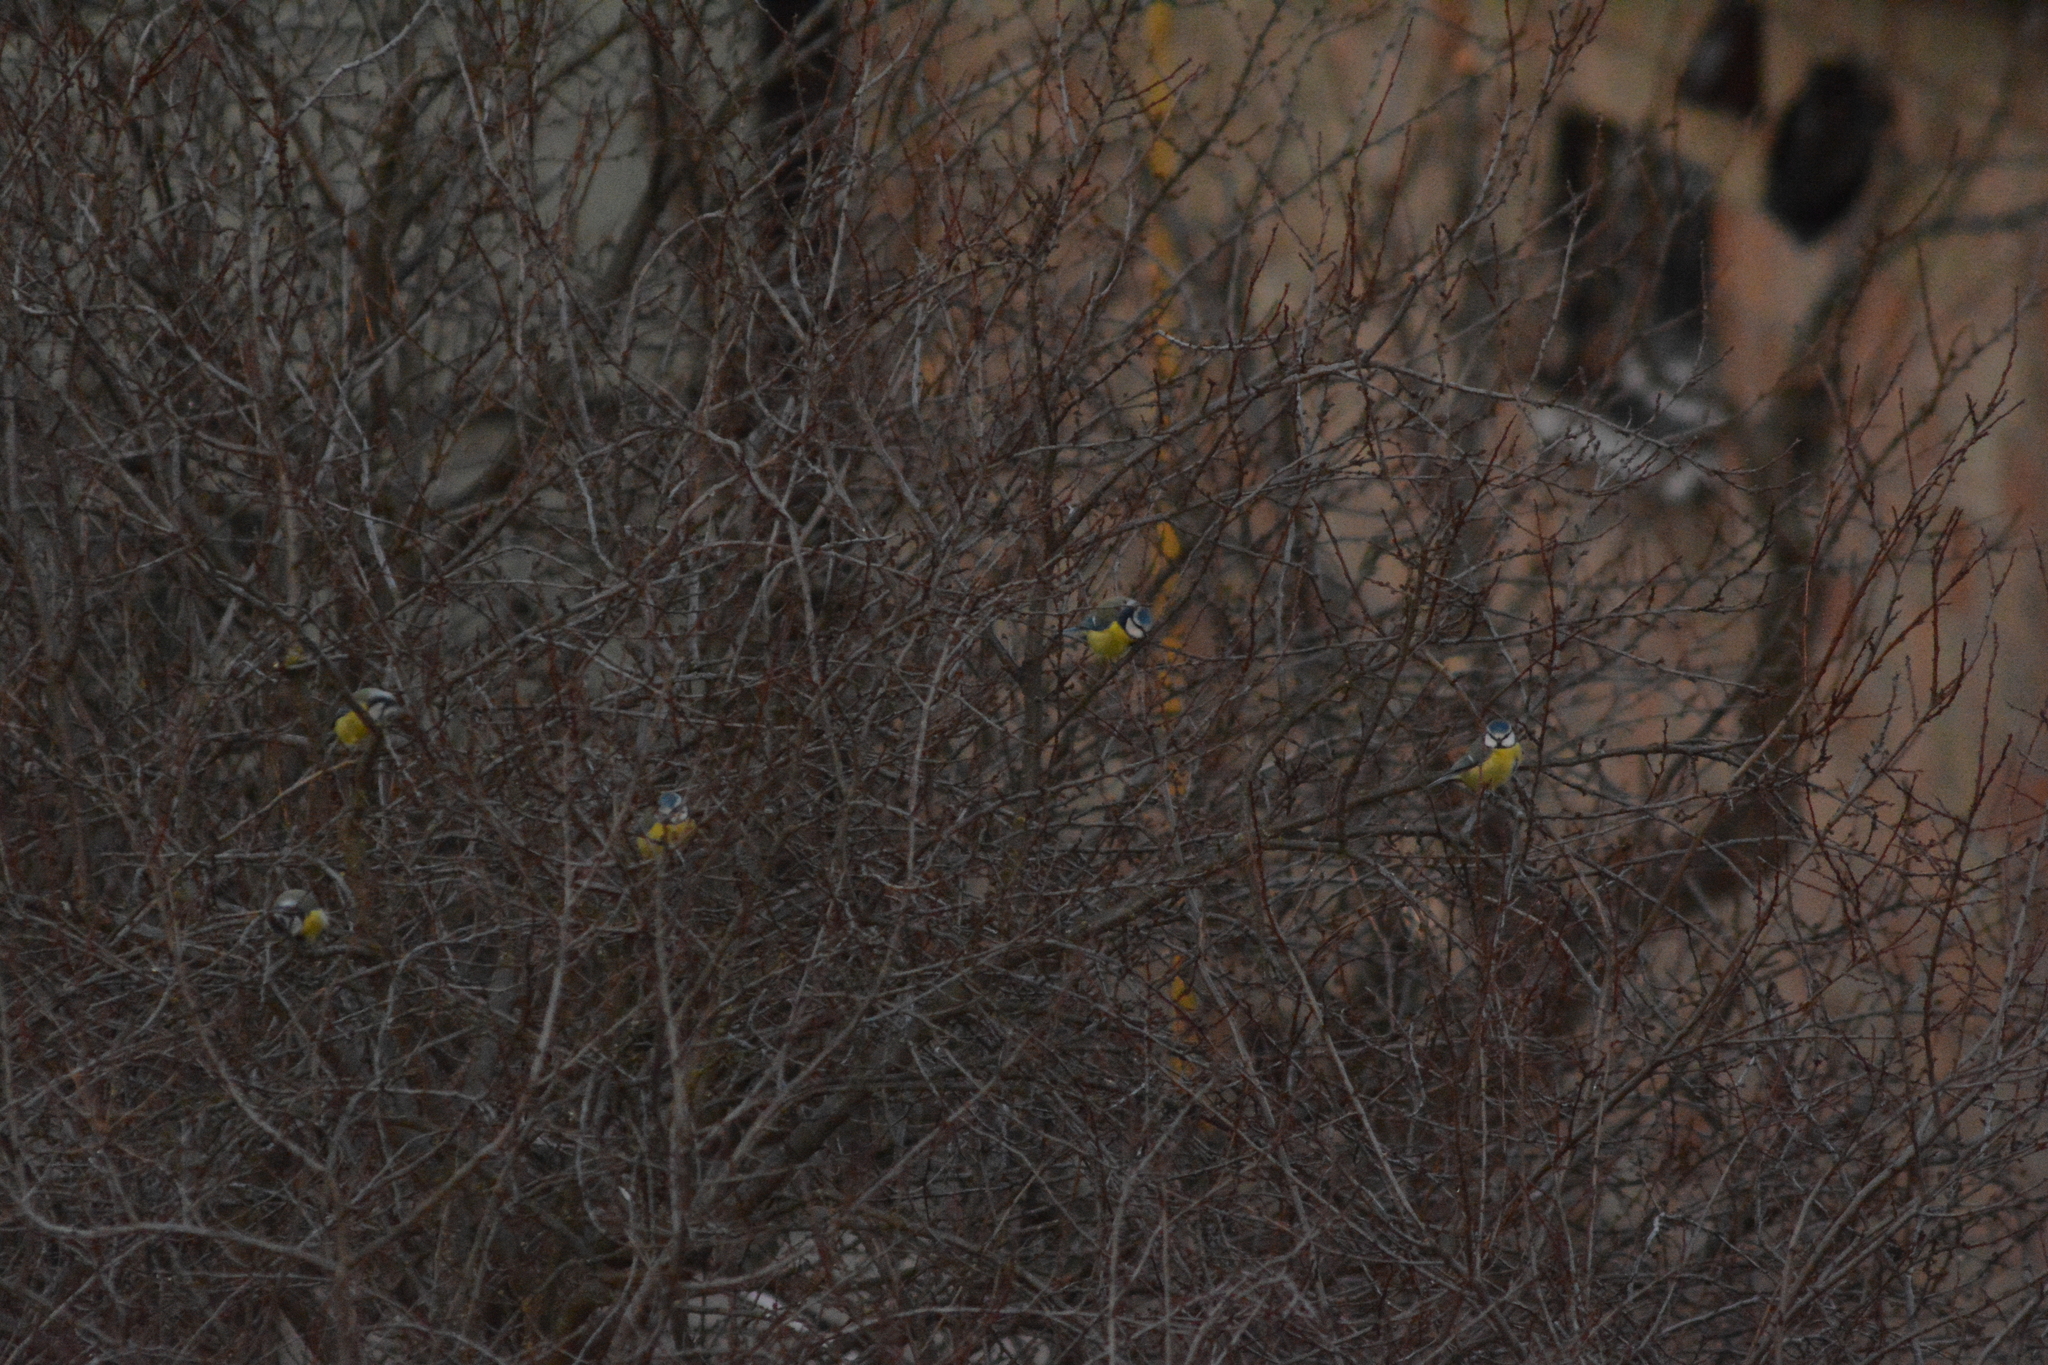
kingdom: Animalia
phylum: Chordata
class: Aves
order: Passeriformes
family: Paridae
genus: Cyanistes
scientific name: Cyanistes caeruleus
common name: Eurasian blue tit
